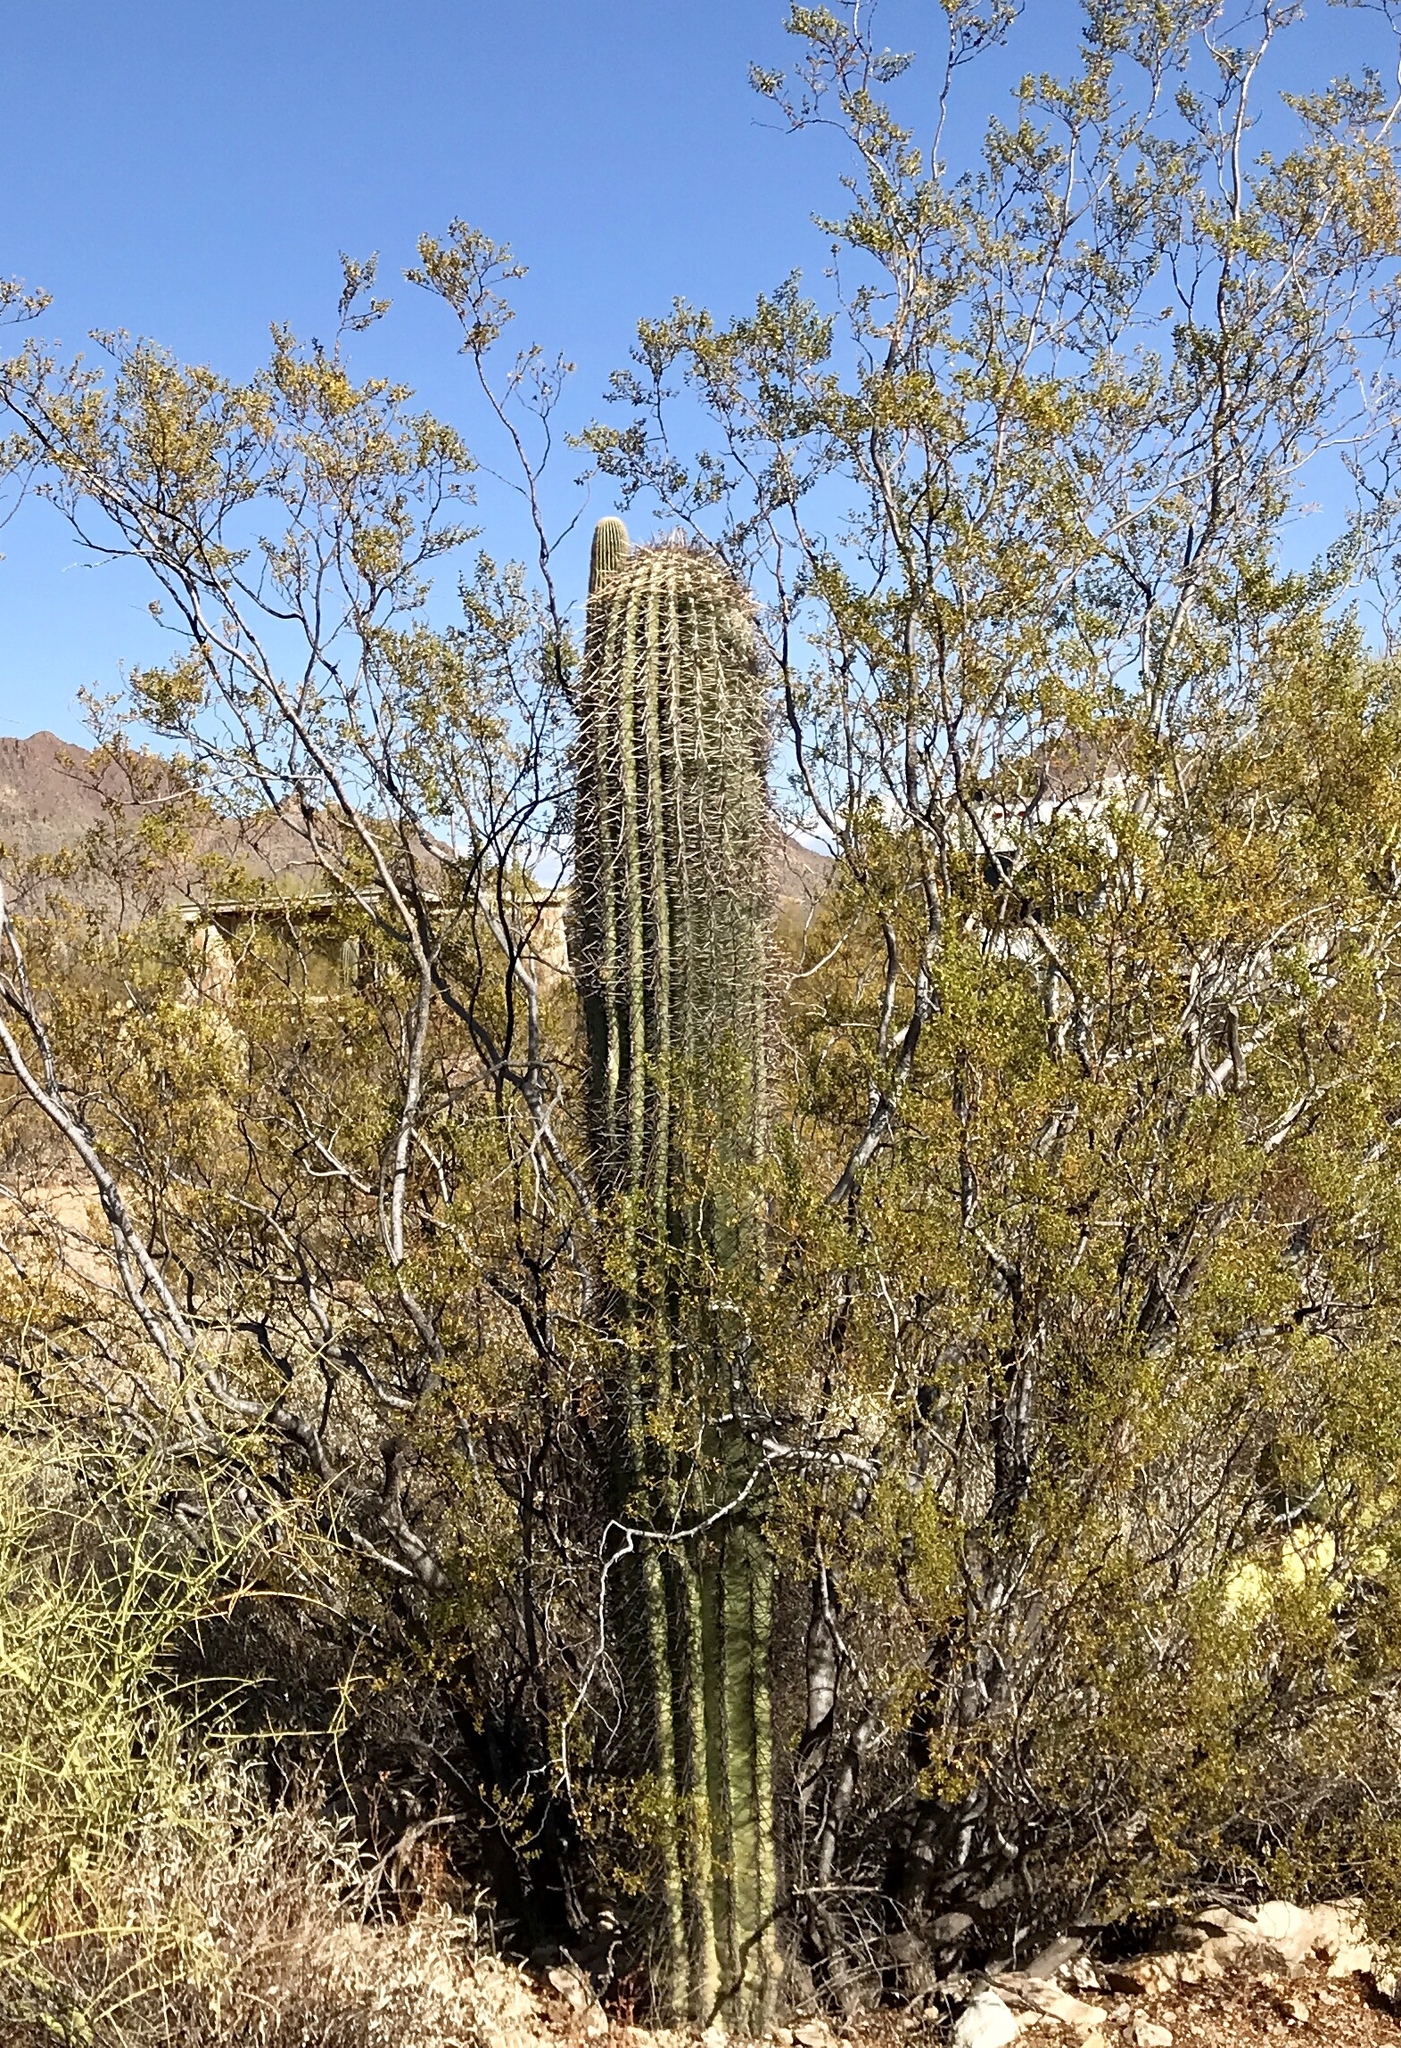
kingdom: Plantae
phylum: Tracheophyta
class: Magnoliopsida
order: Caryophyllales
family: Cactaceae
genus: Carnegiea
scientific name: Carnegiea gigantea
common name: Saguaro
